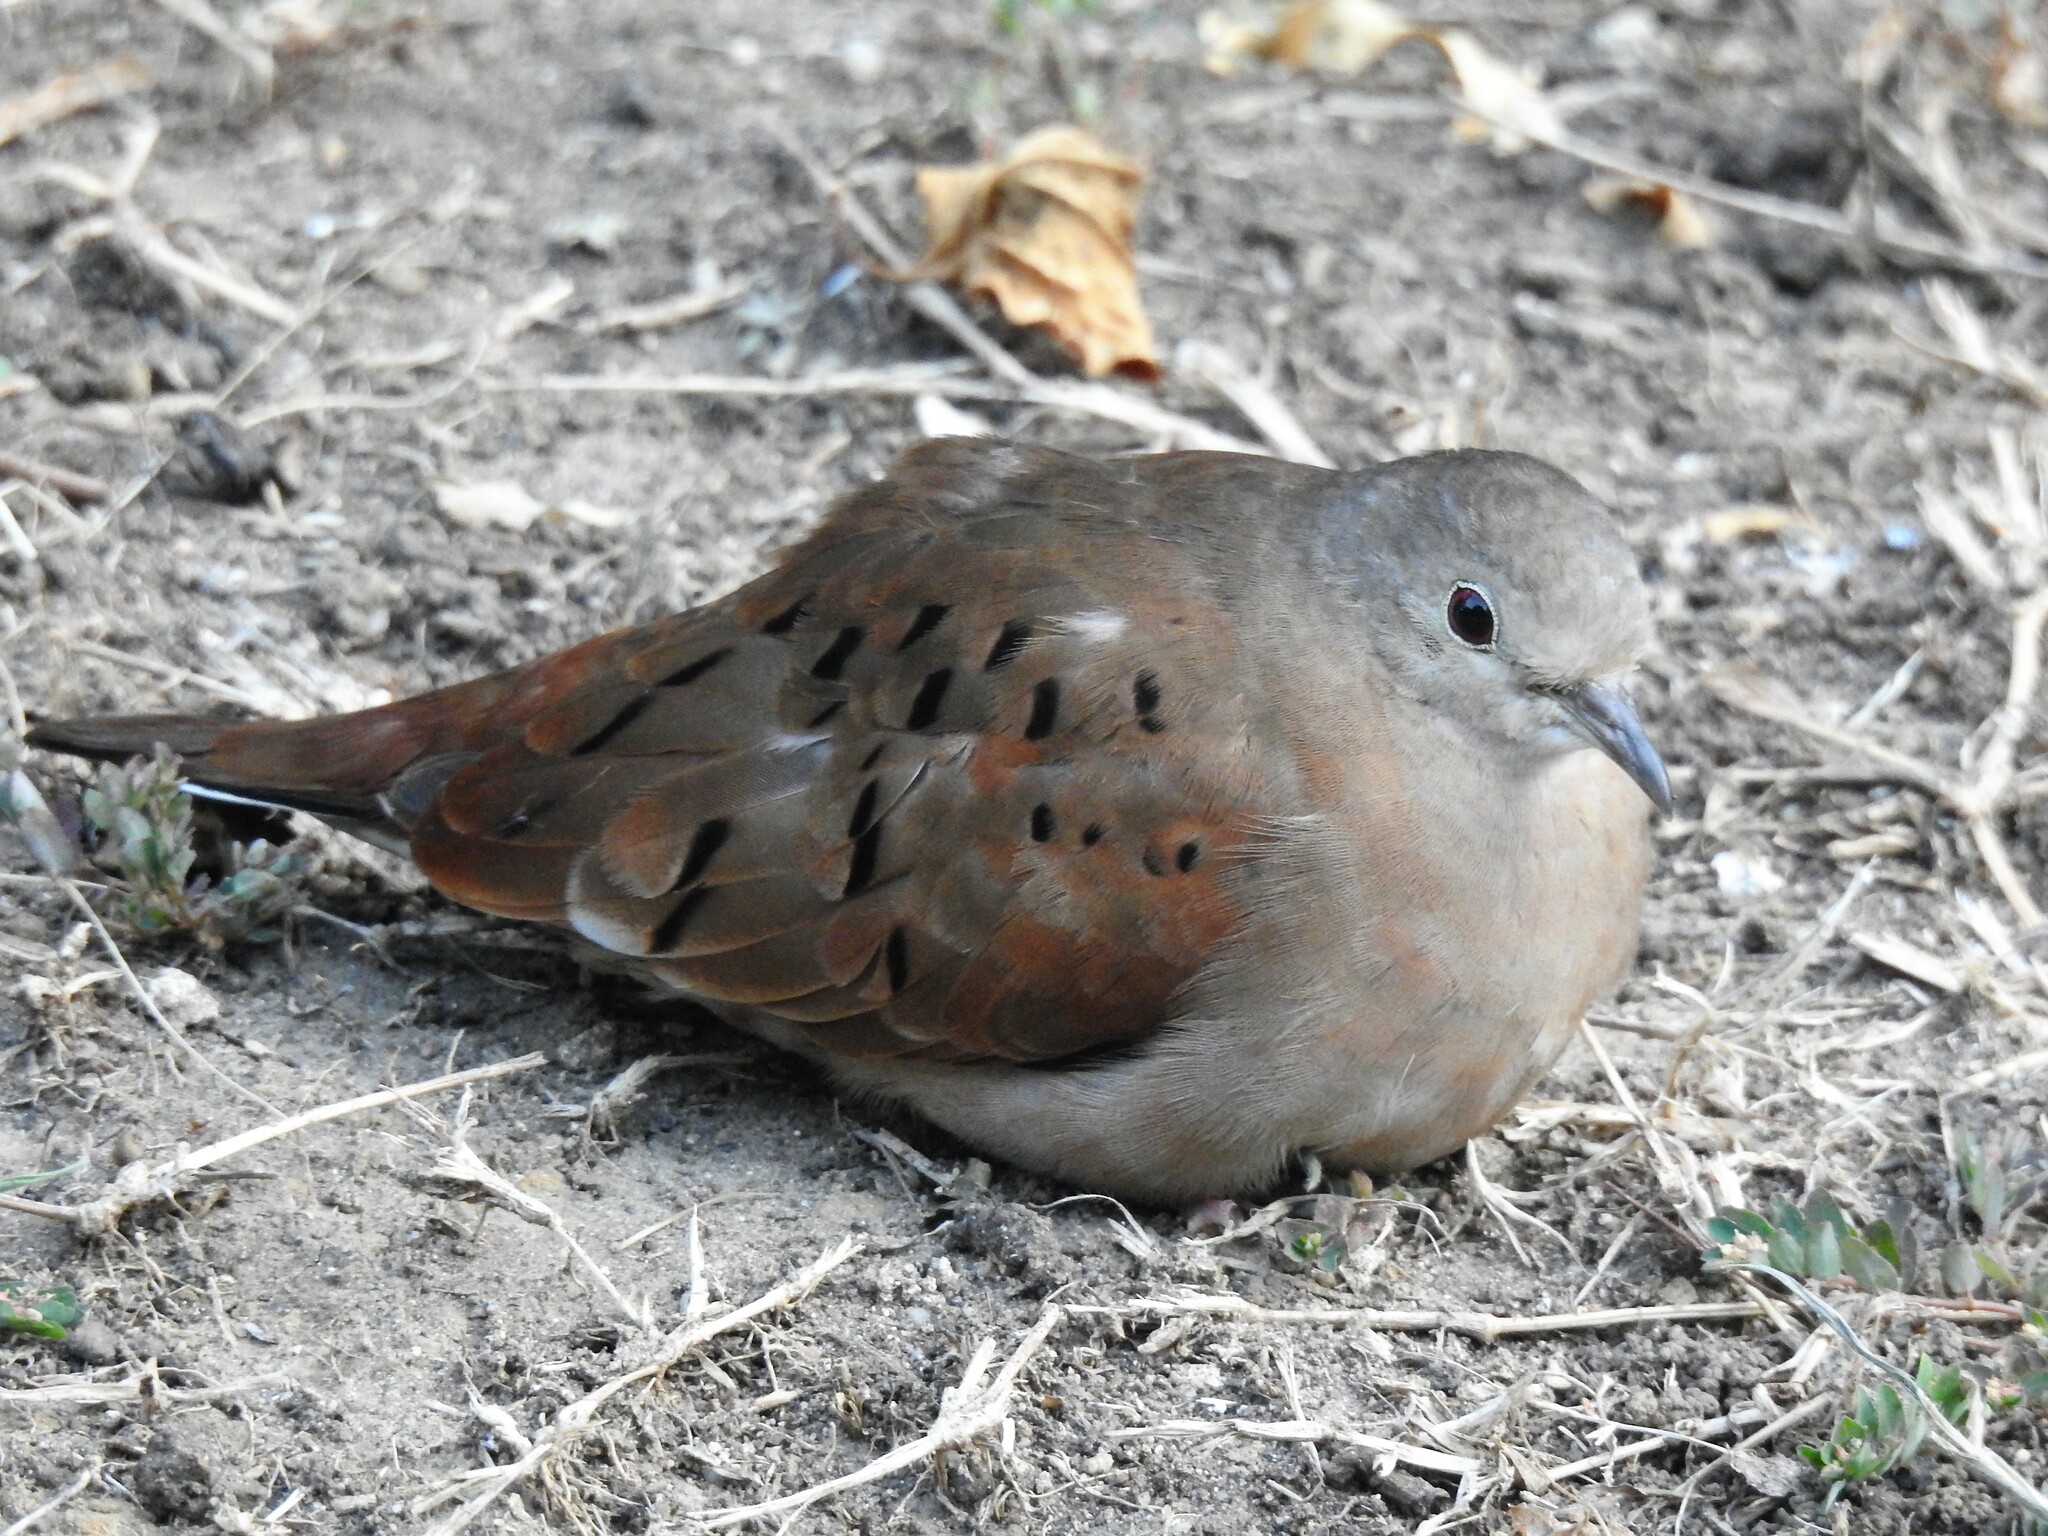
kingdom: Animalia
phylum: Chordata
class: Aves
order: Columbiformes
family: Columbidae
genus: Columbina
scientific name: Columbina talpacoti
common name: Ruddy ground dove
